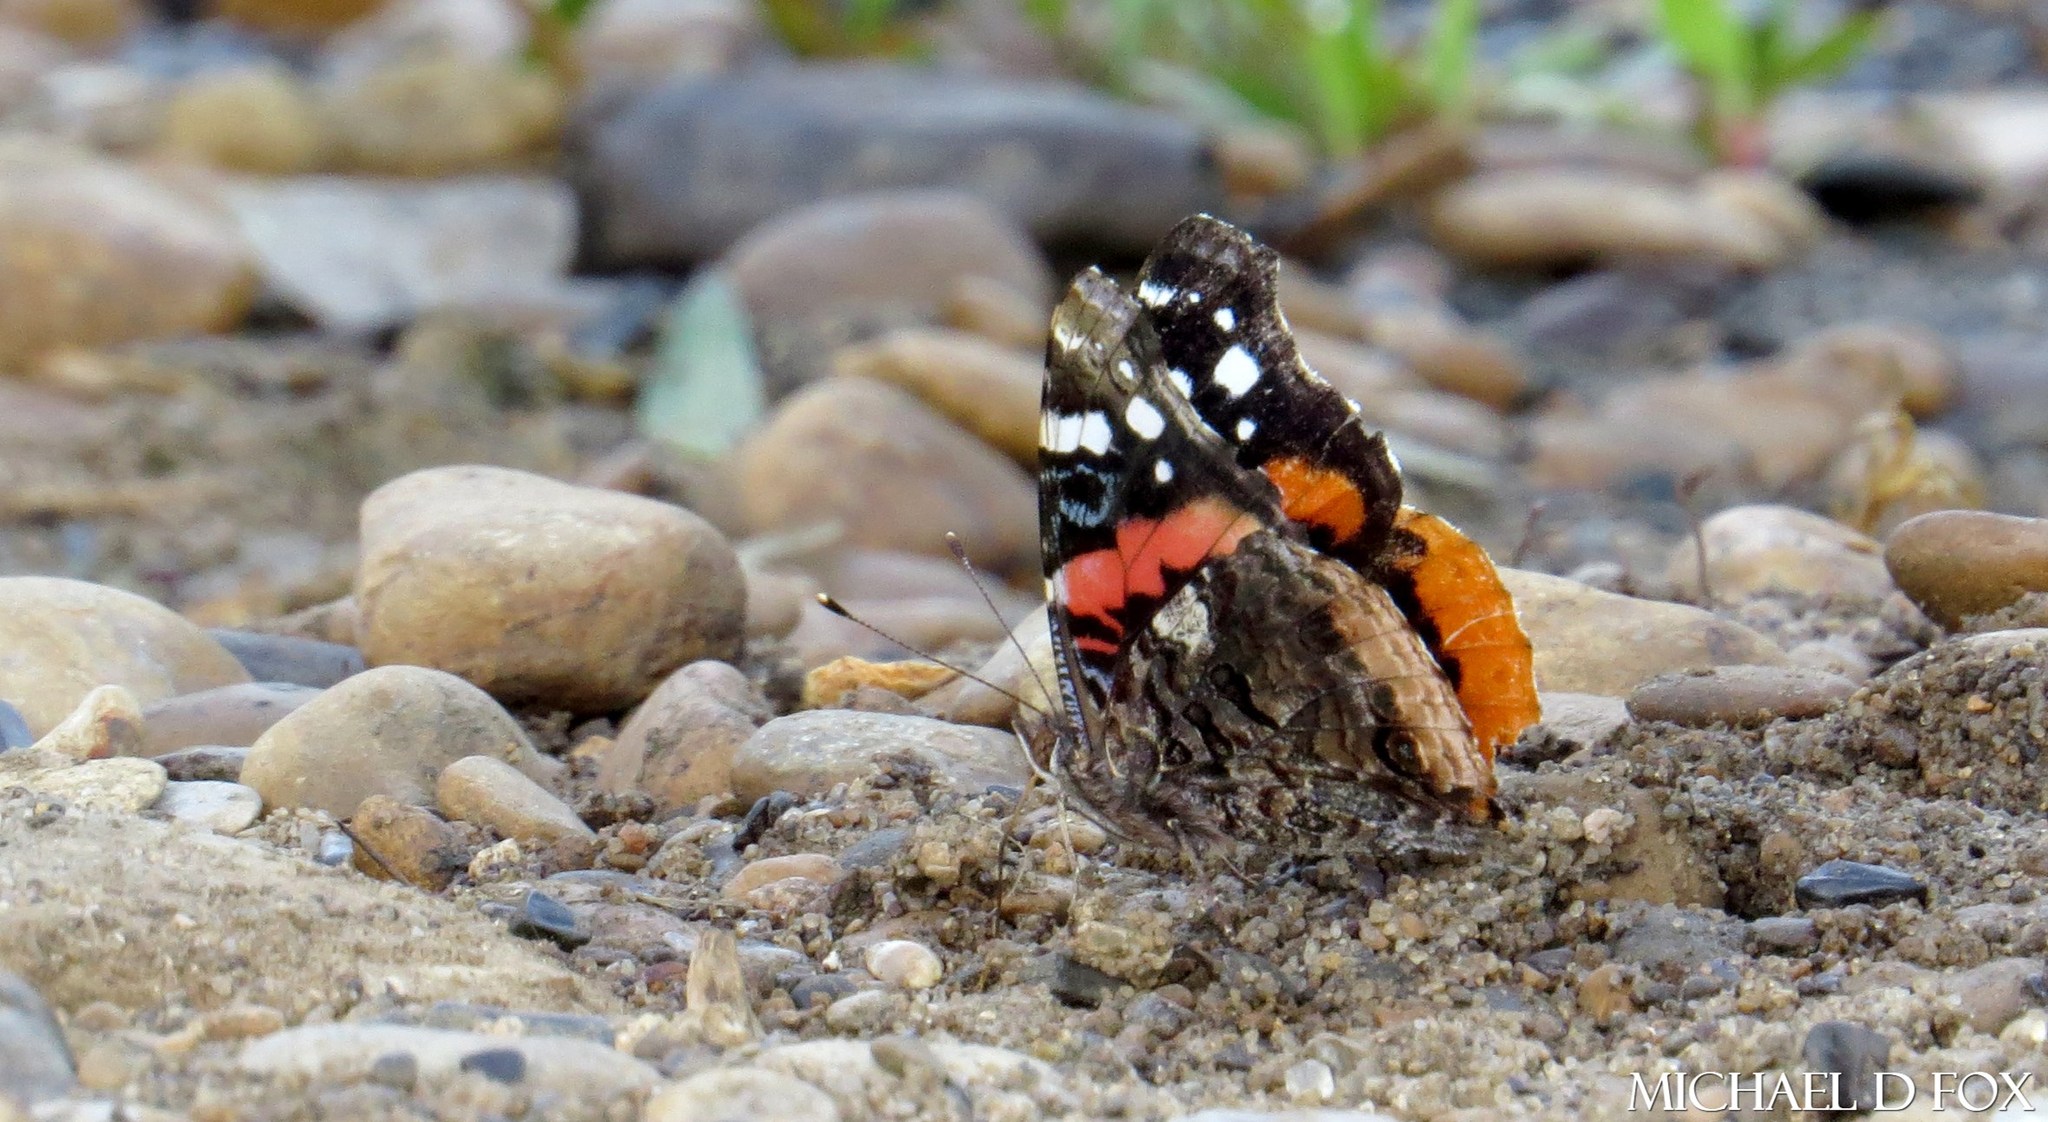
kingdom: Animalia
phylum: Arthropoda
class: Insecta
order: Lepidoptera
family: Nymphalidae
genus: Vanessa
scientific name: Vanessa atalanta
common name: Red admiral
